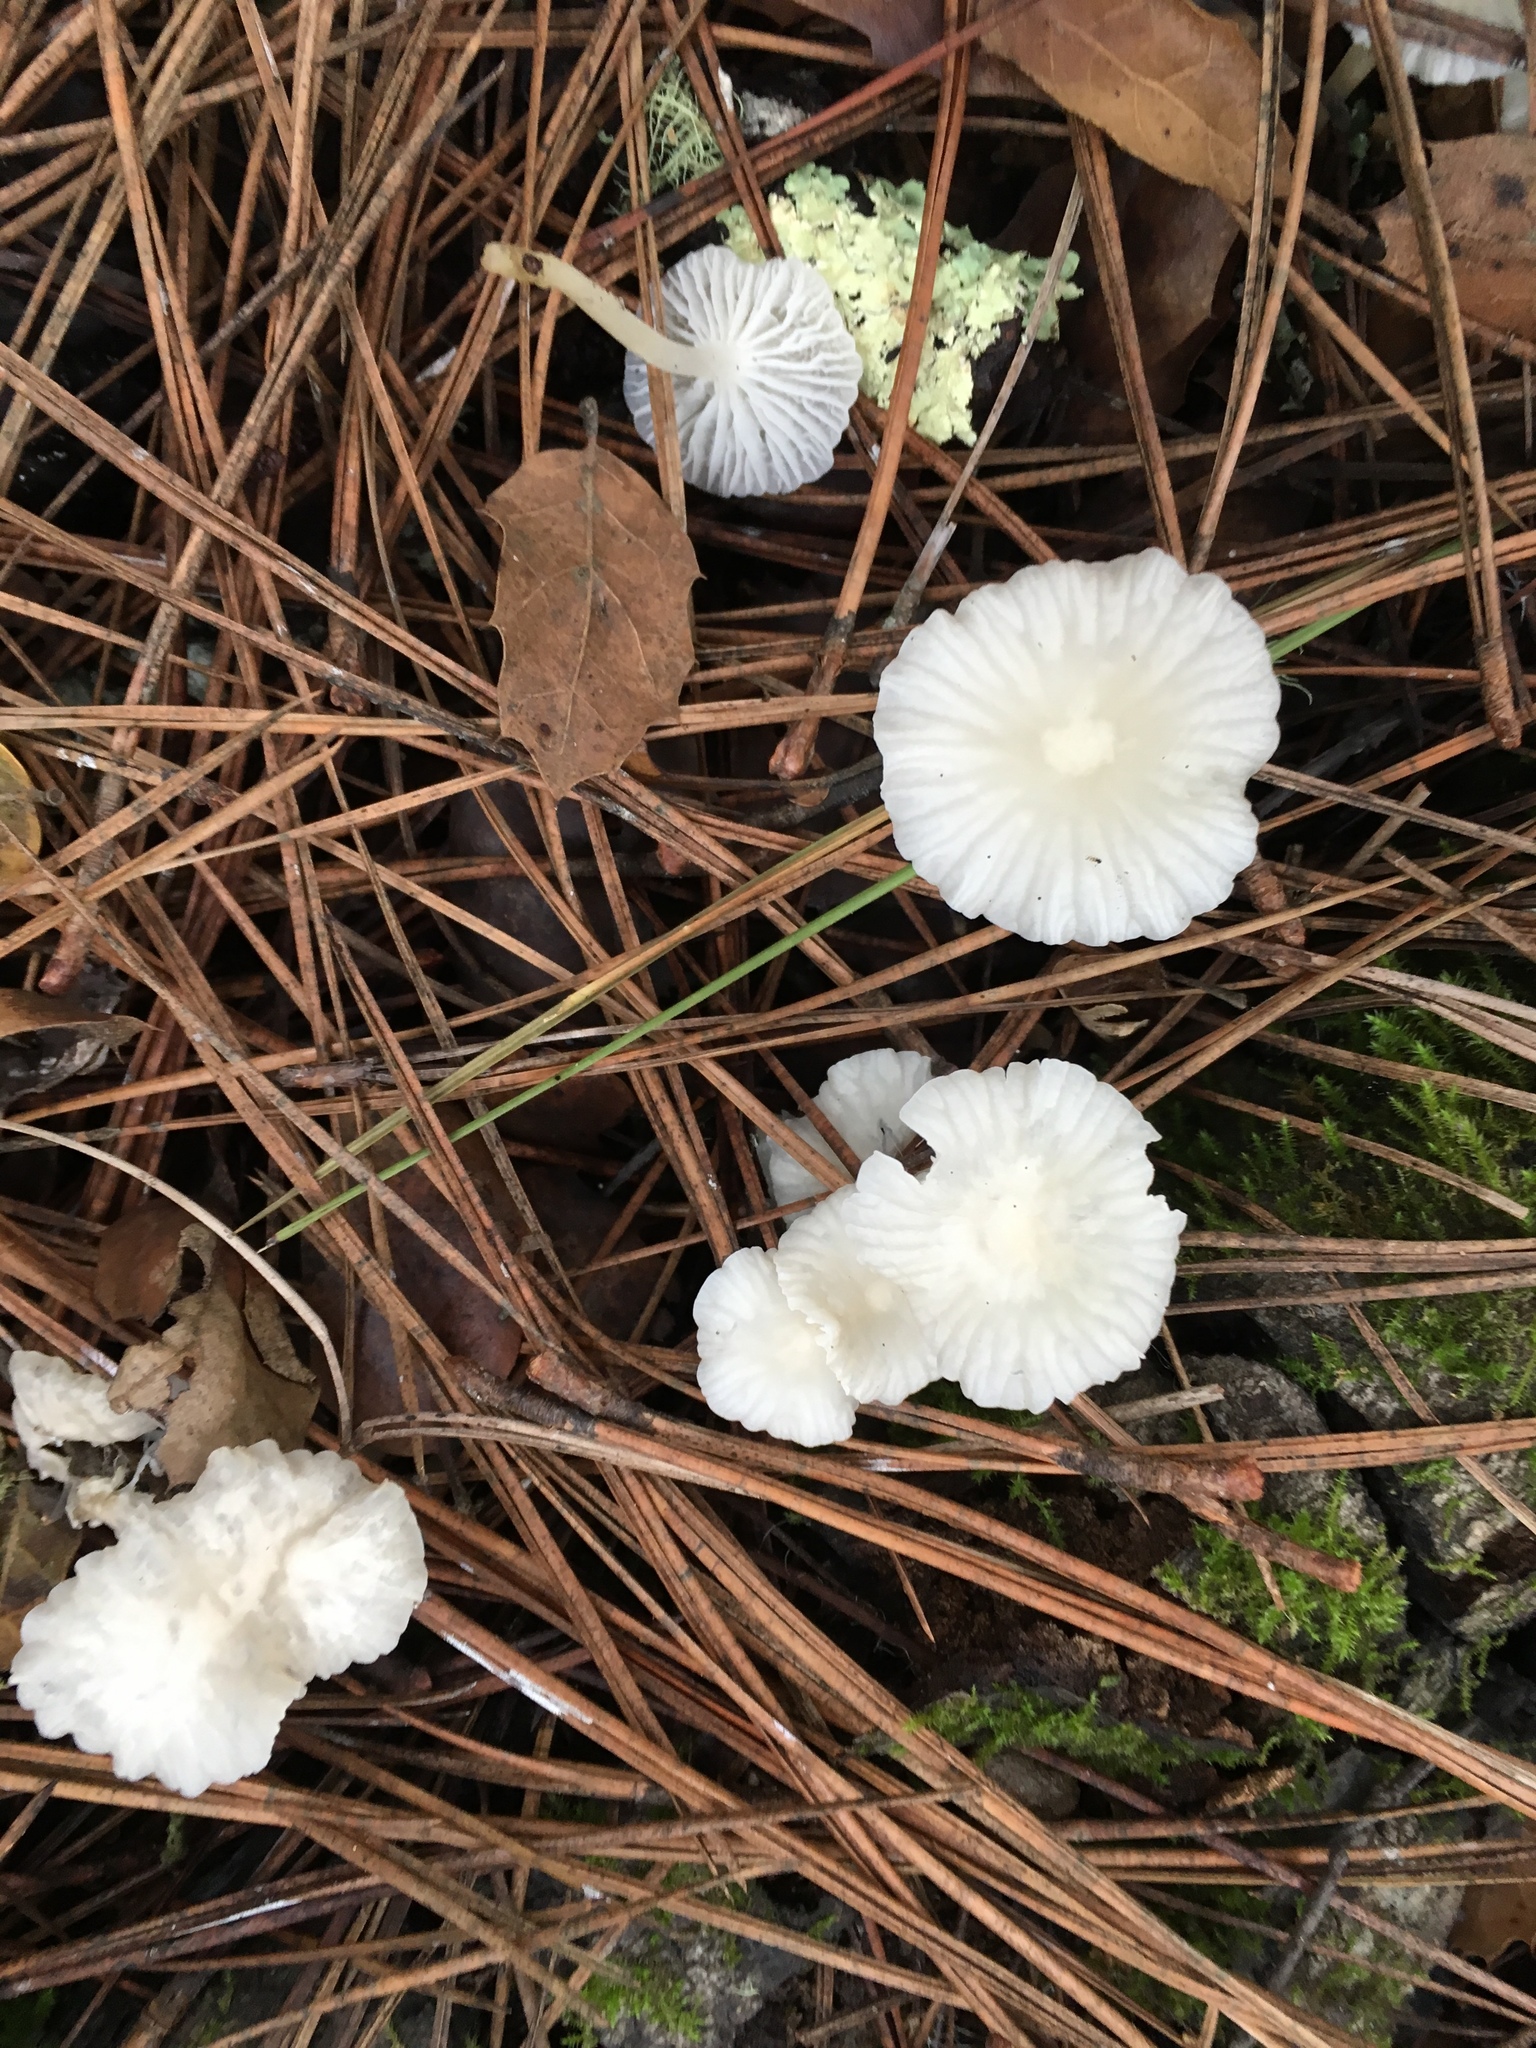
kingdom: Fungi
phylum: Basidiomycota
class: Agaricomycetes
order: Agaricales
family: Marasmiaceae
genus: Marasmius
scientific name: Marasmius calhouniae
